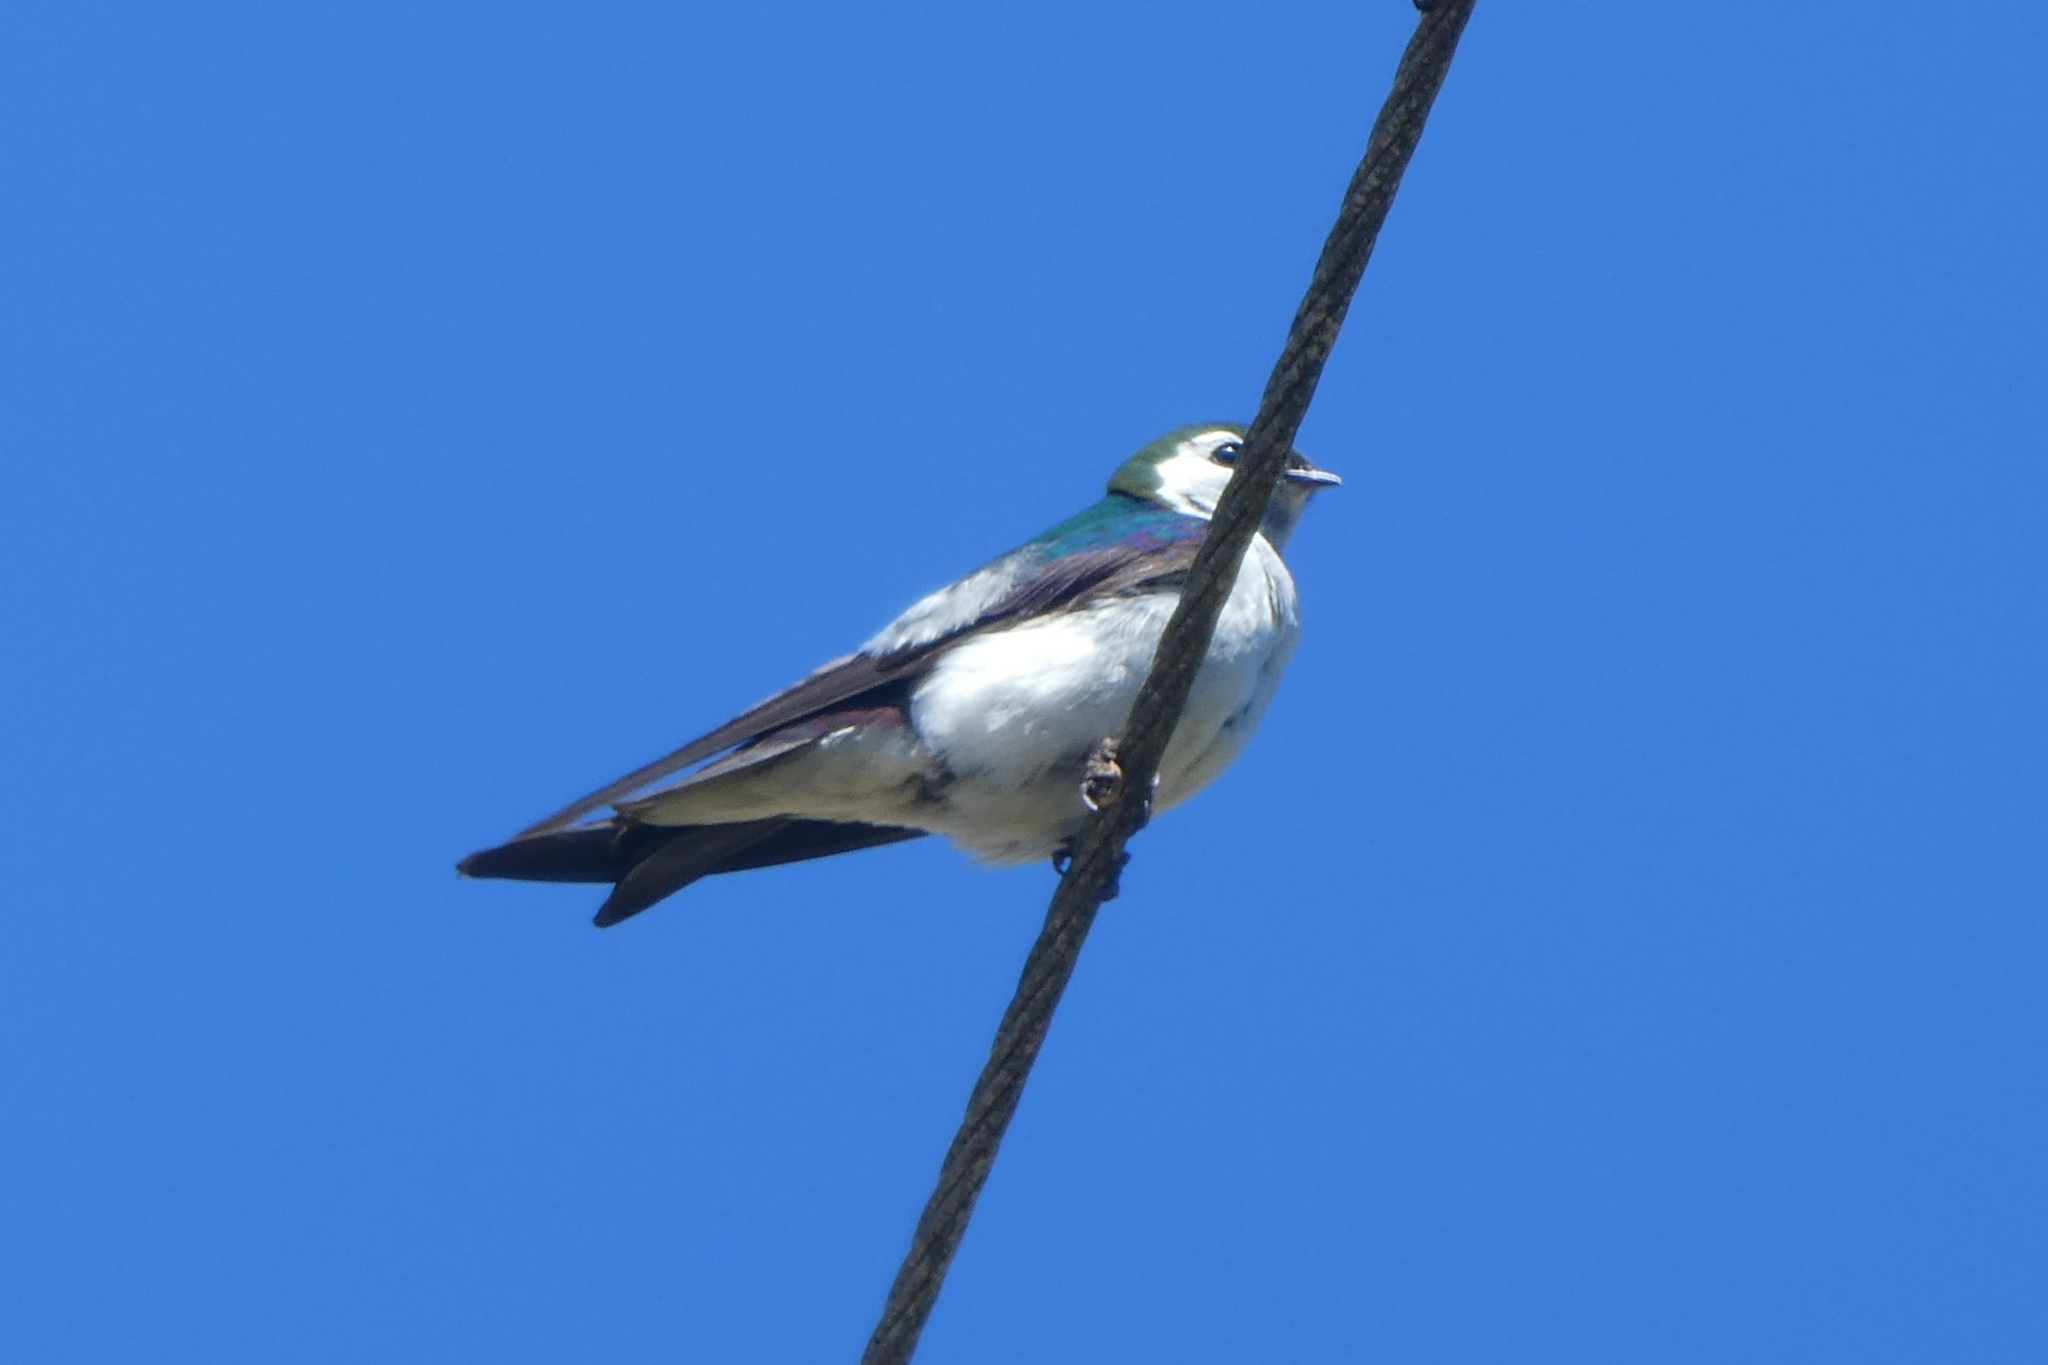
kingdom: Animalia
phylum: Chordata
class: Aves
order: Passeriformes
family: Hirundinidae
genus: Tachycineta
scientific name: Tachycineta thalassina
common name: Violet-green swallow
